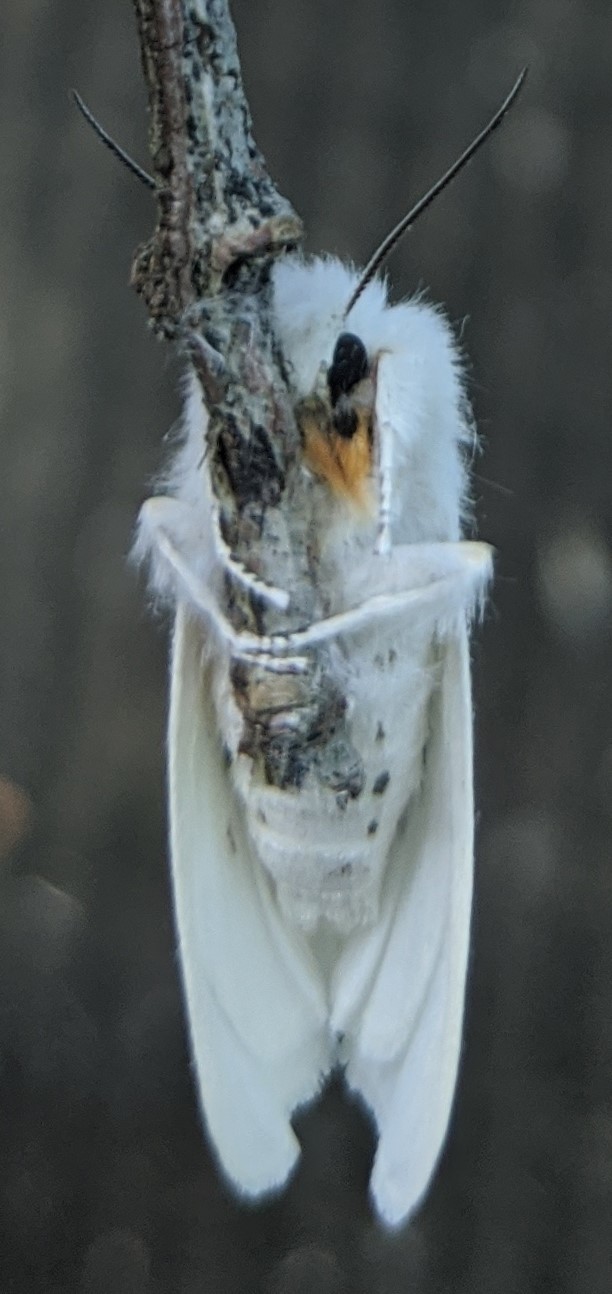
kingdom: Animalia
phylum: Arthropoda
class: Insecta
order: Lepidoptera
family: Erebidae
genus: Spilosoma
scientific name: Spilosoma virginica
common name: Virginia tiger moth
